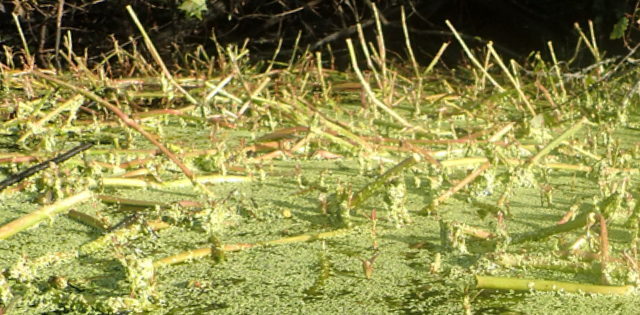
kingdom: Plantae
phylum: Tracheophyta
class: Magnoliopsida
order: Caryophyllales
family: Amaranthaceae
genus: Alternanthera
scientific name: Alternanthera philoxeroides
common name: Alligatorweed
